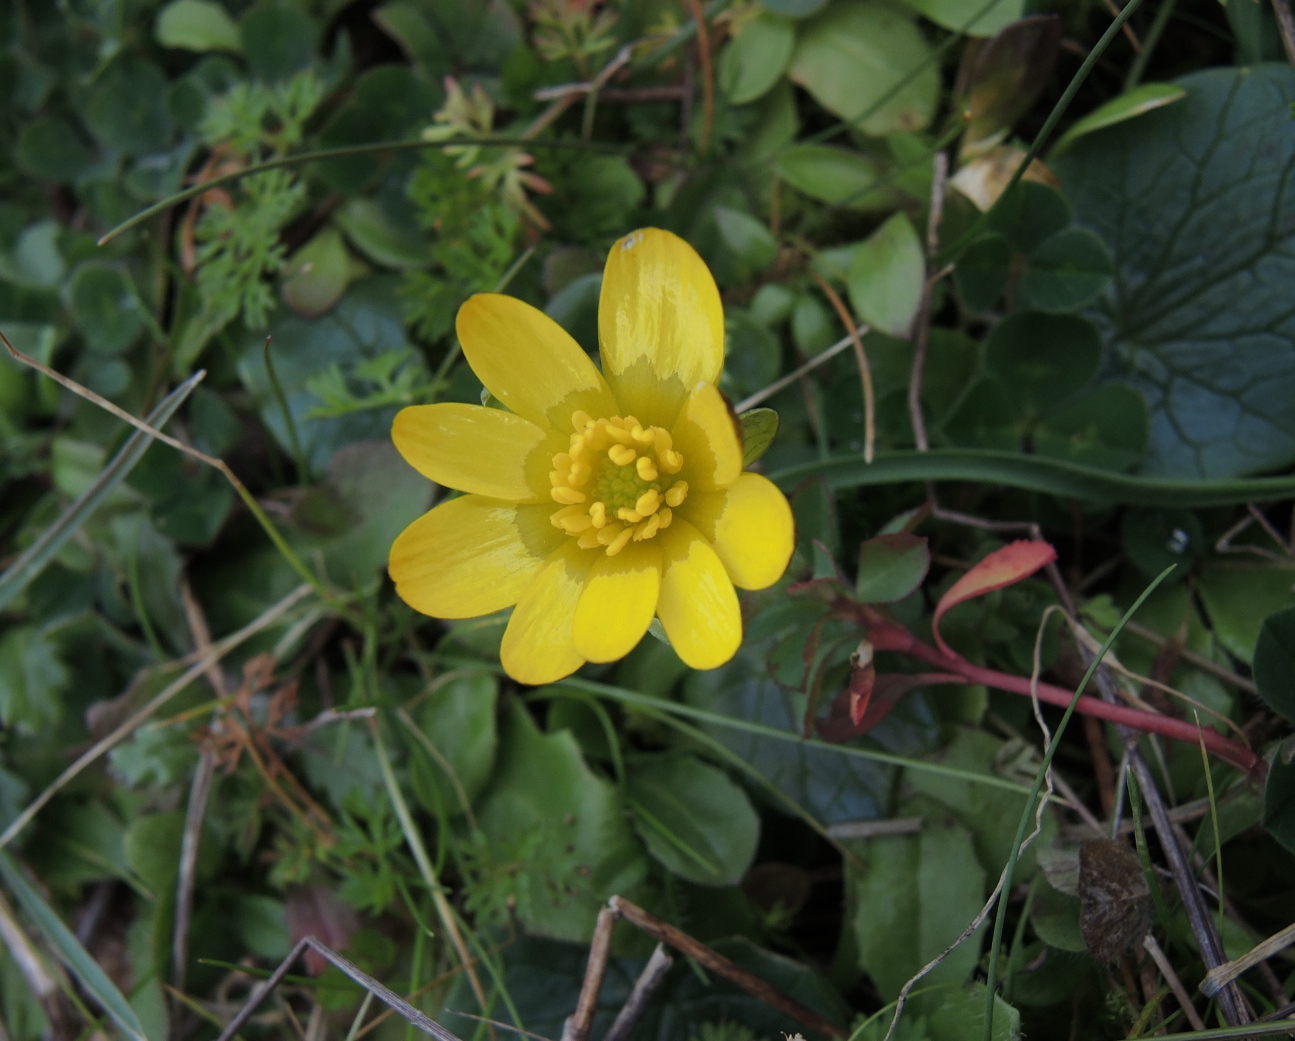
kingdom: Plantae
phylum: Tracheophyta
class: Magnoliopsida
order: Ranunculales
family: Ranunculaceae
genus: Ficaria
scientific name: Ficaria verna
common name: Lesser celandine
